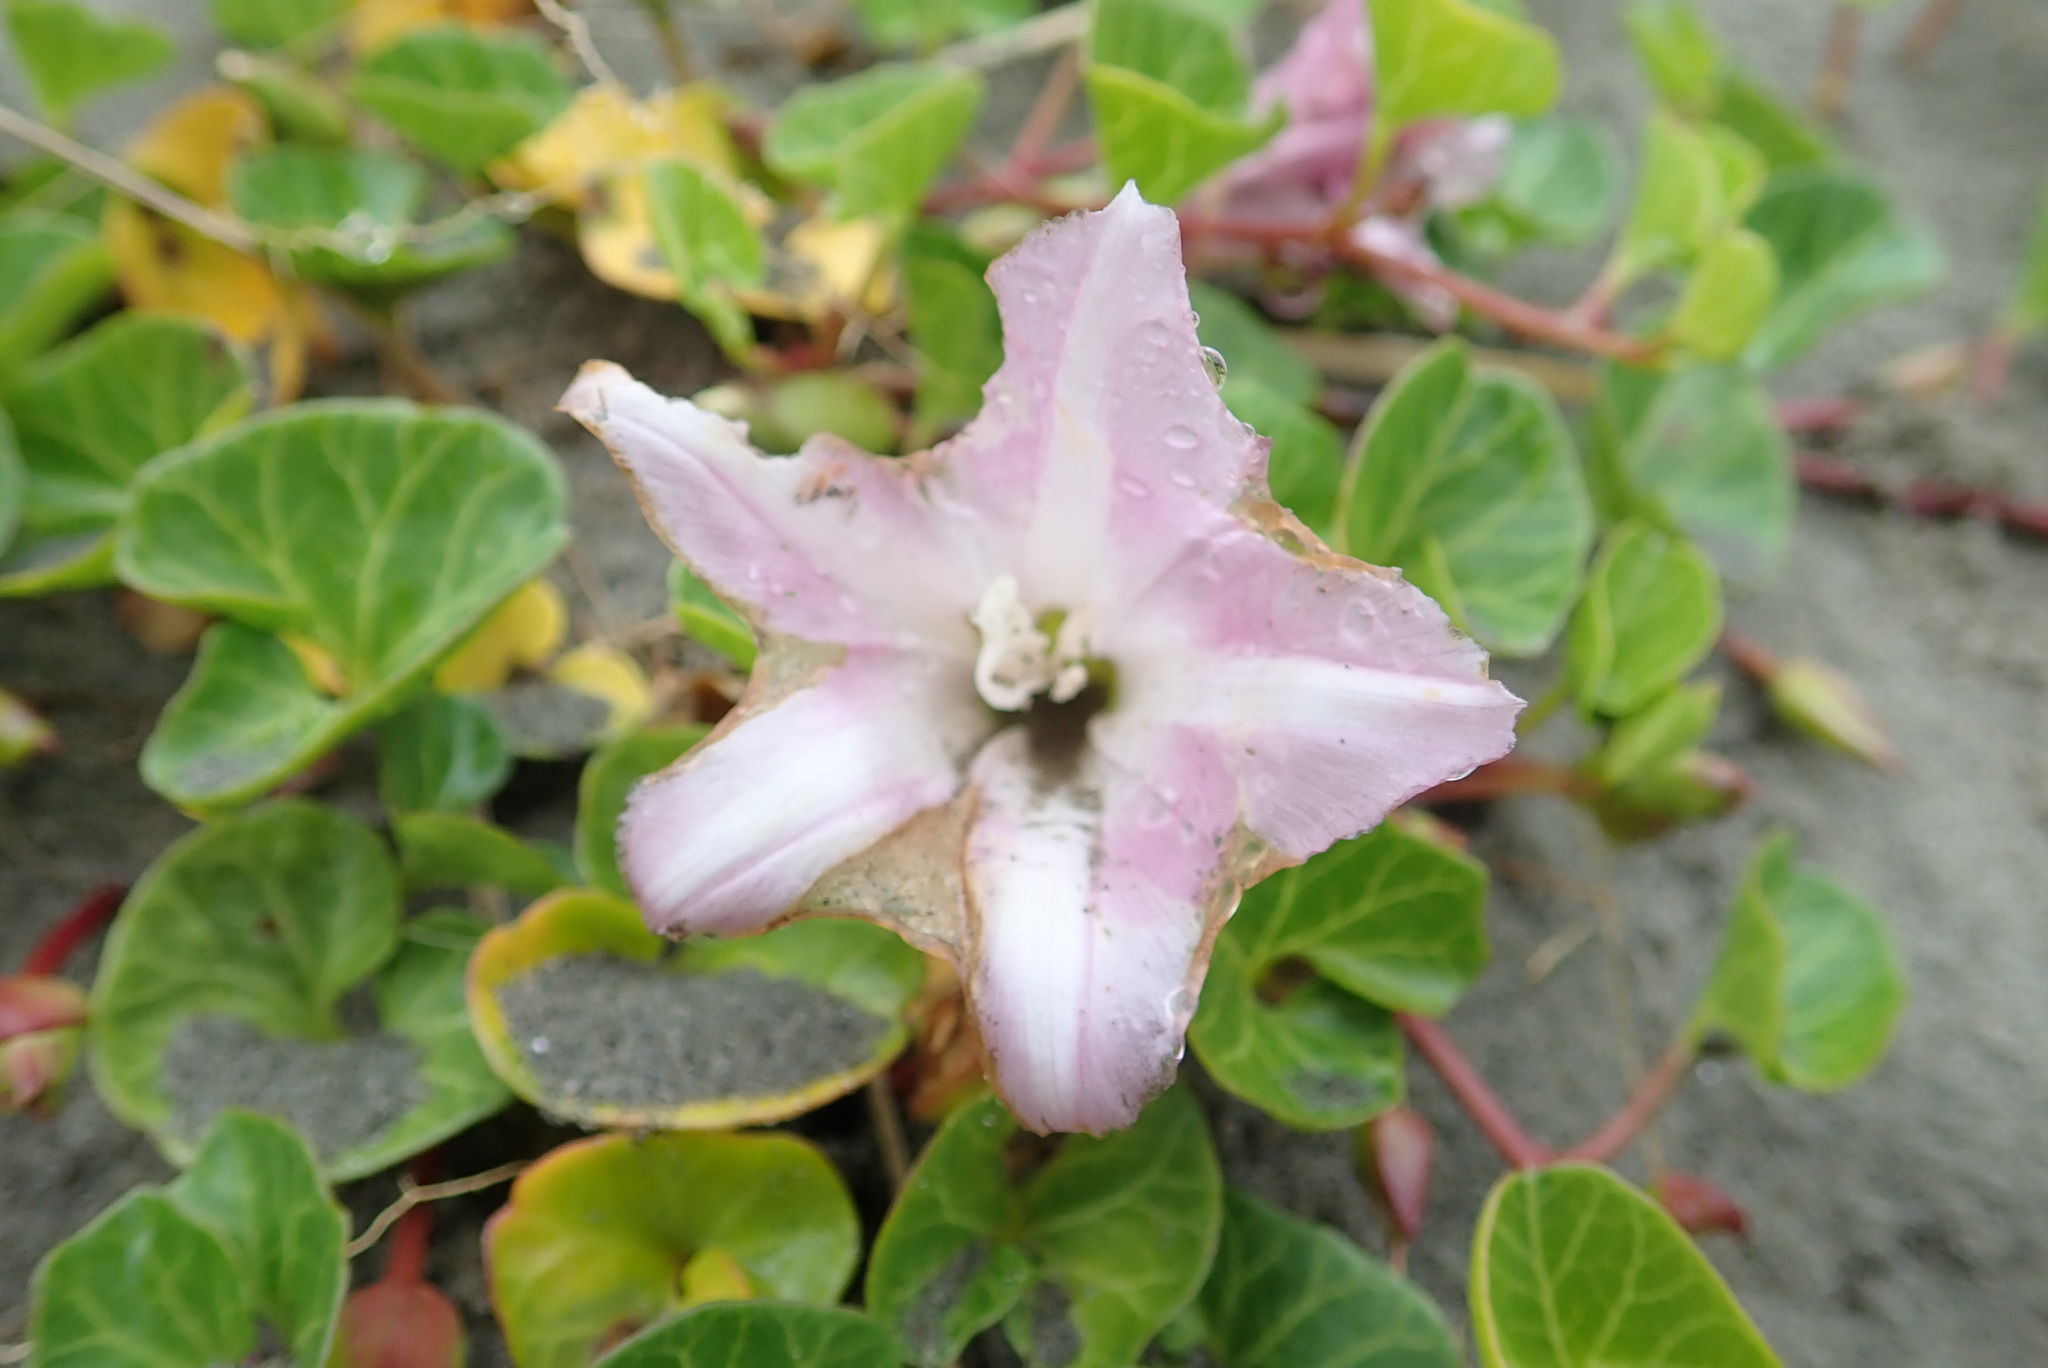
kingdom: Plantae
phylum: Tracheophyta
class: Magnoliopsida
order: Solanales
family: Convolvulaceae
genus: Calystegia
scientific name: Calystegia soldanella
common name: Sea bindweed
